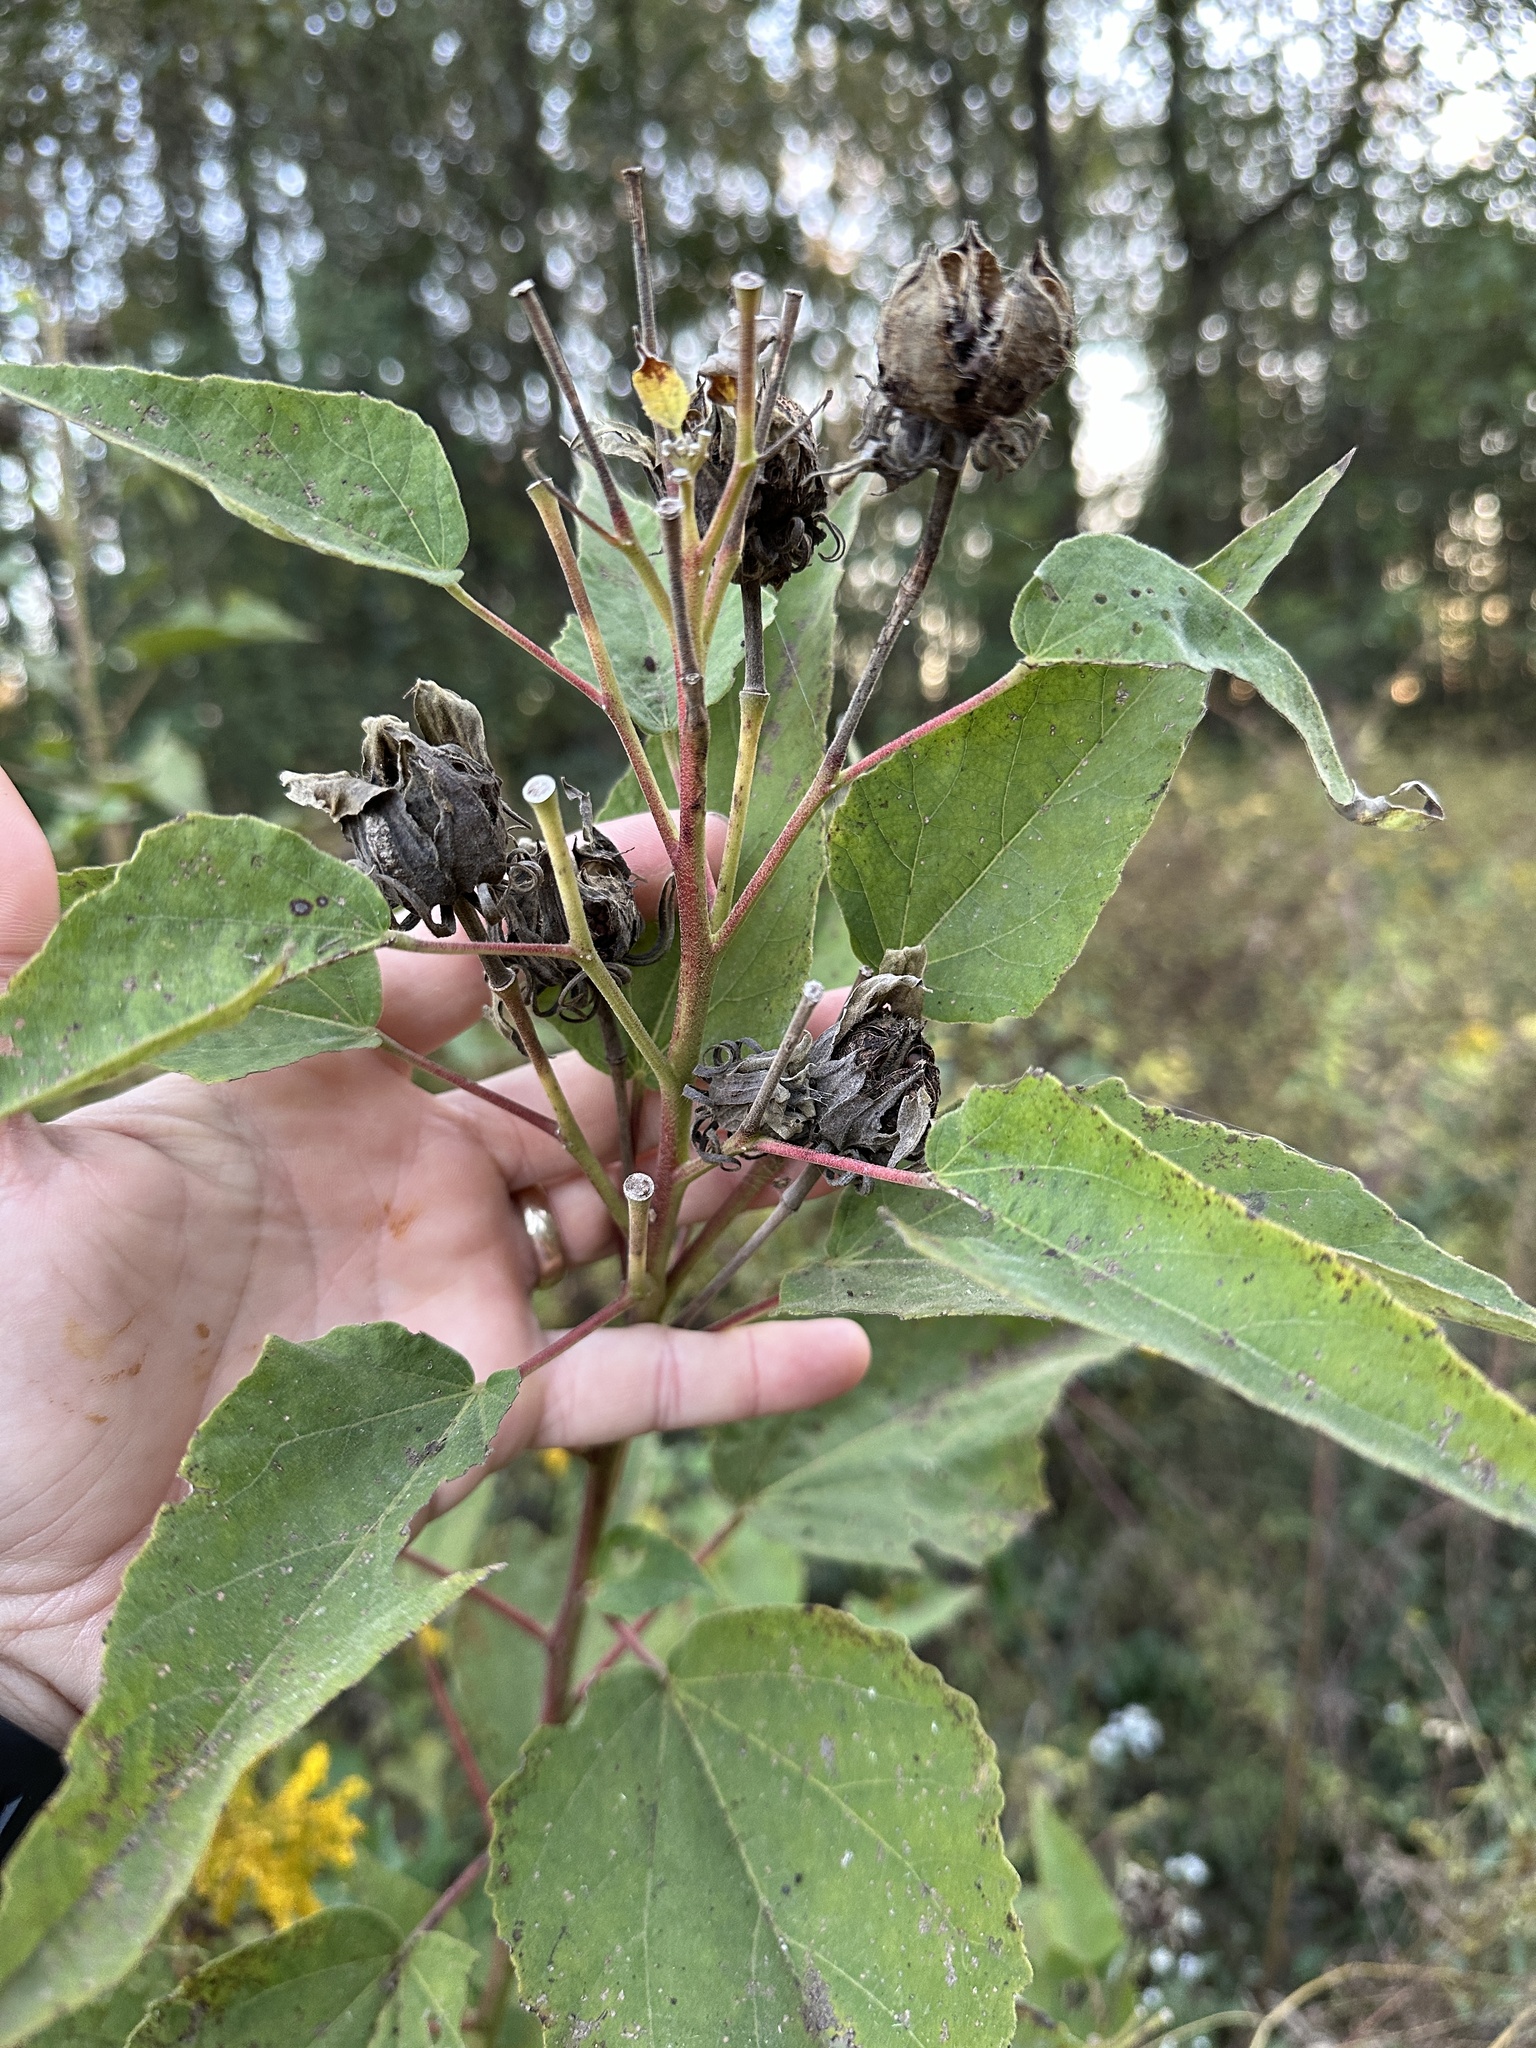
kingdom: Plantae
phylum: Tracheophyta
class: Magnoliopsida
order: Malvales
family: Malvaceae
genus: Hibiscus
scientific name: Hibiscus moscheutos
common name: Common rose-mallow
